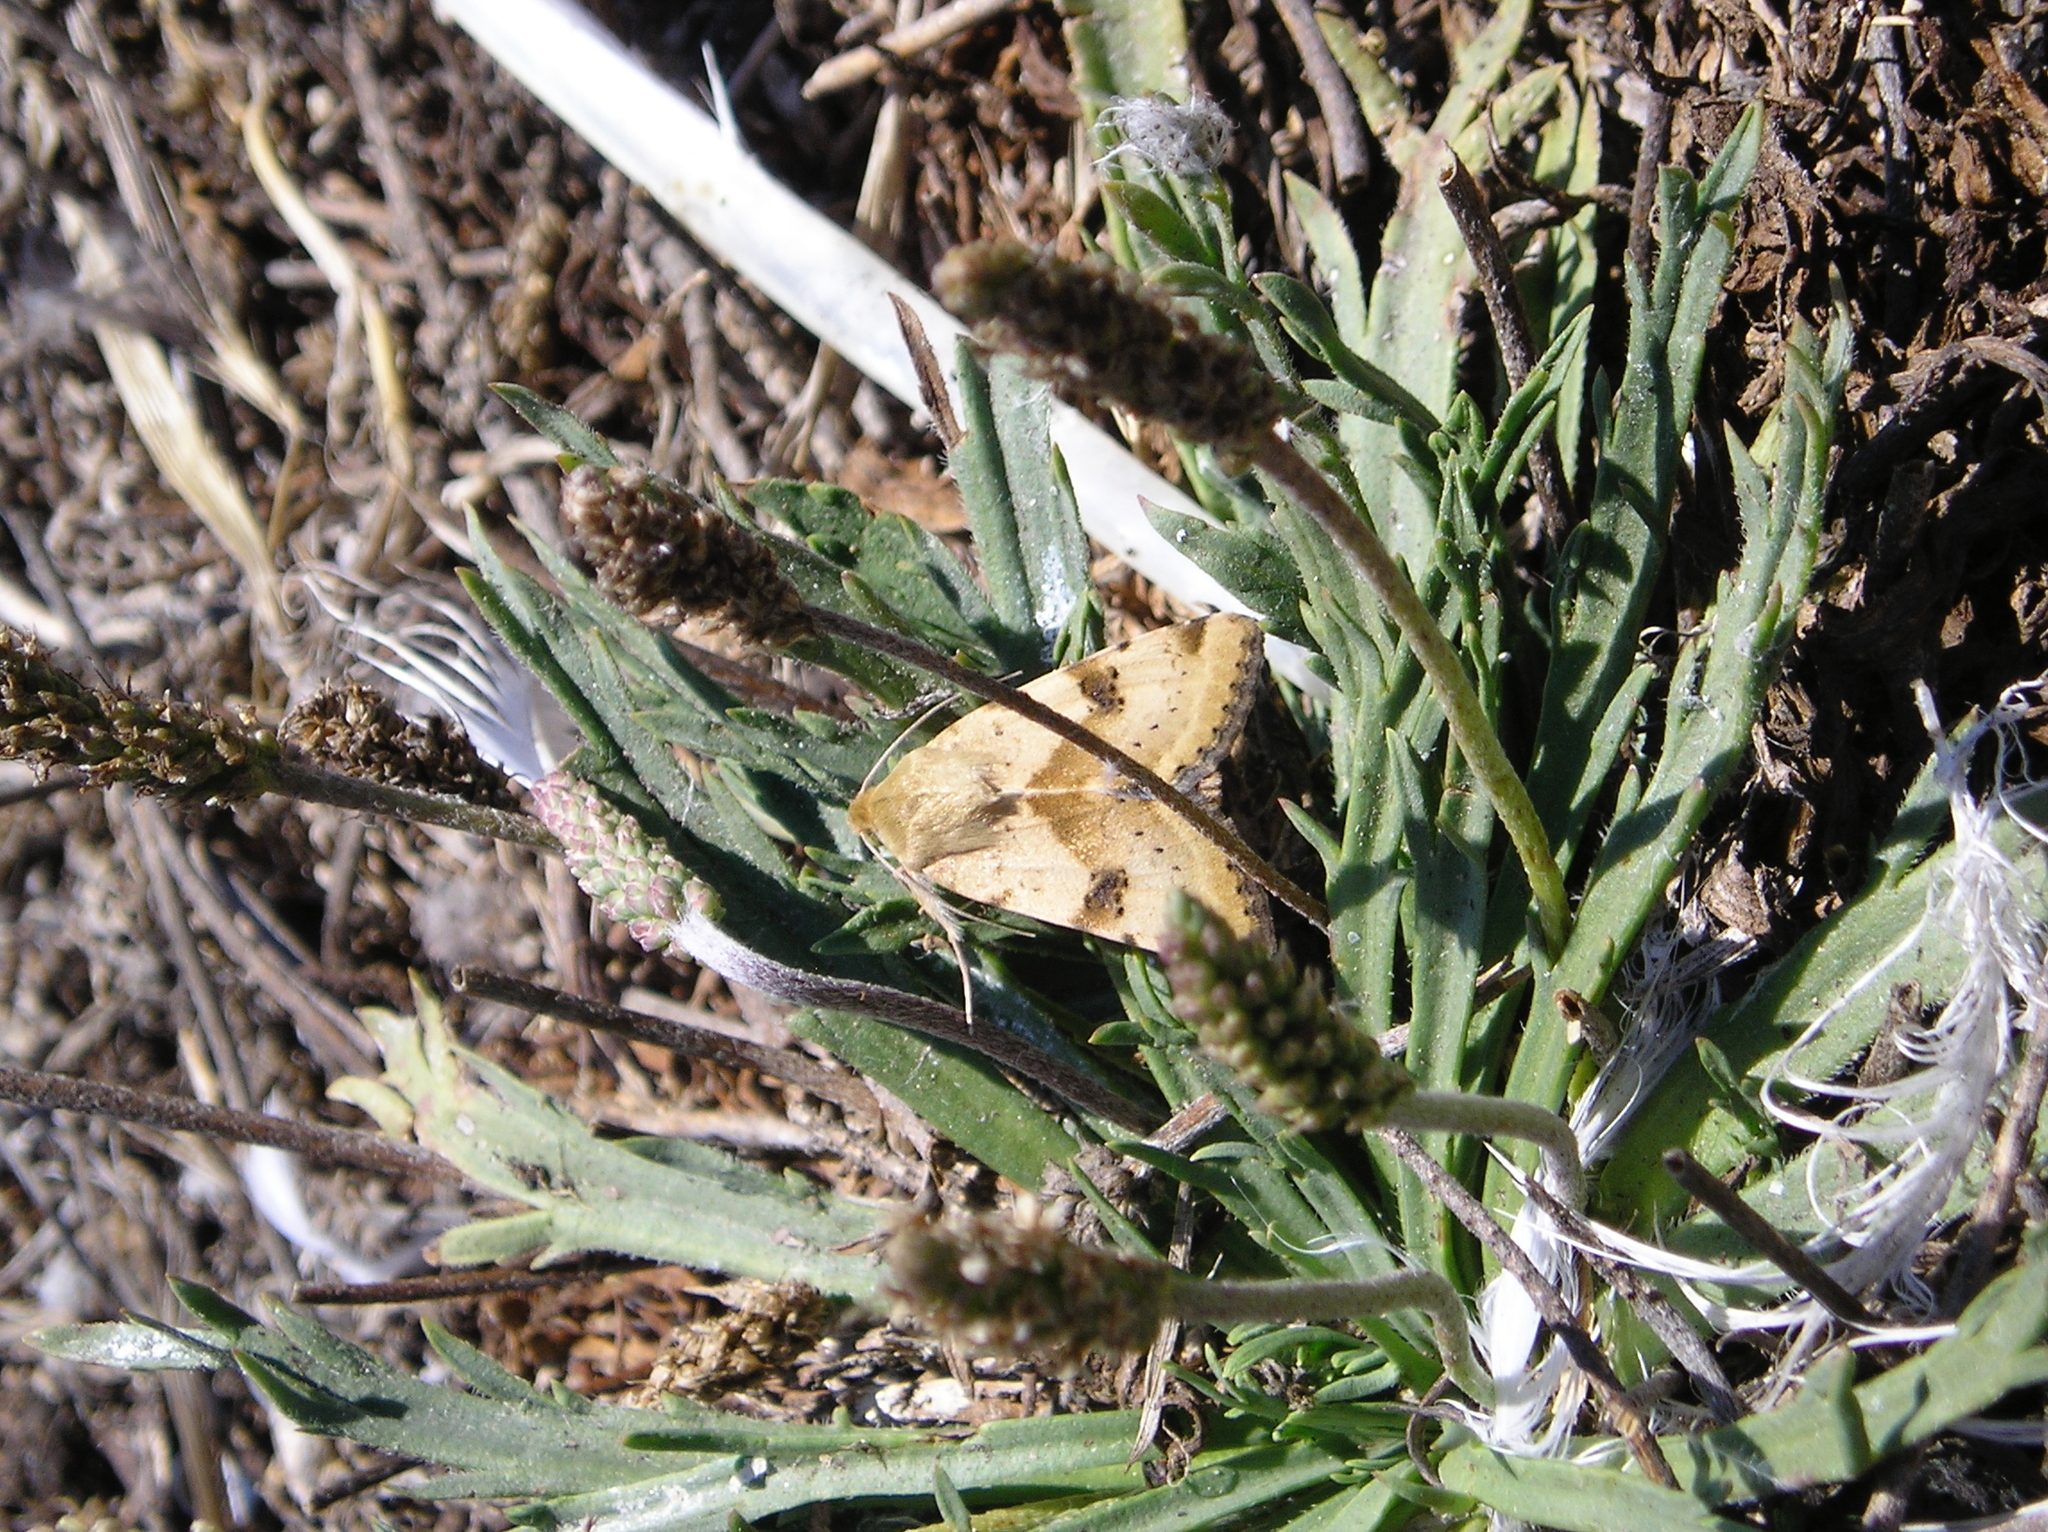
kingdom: Animalia
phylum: Arthropoda
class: Insecta
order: Lepidoptera
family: Noctuidae
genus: Heliothis
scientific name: Heliothis phloxiphaga
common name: Darker spotted straw moth
